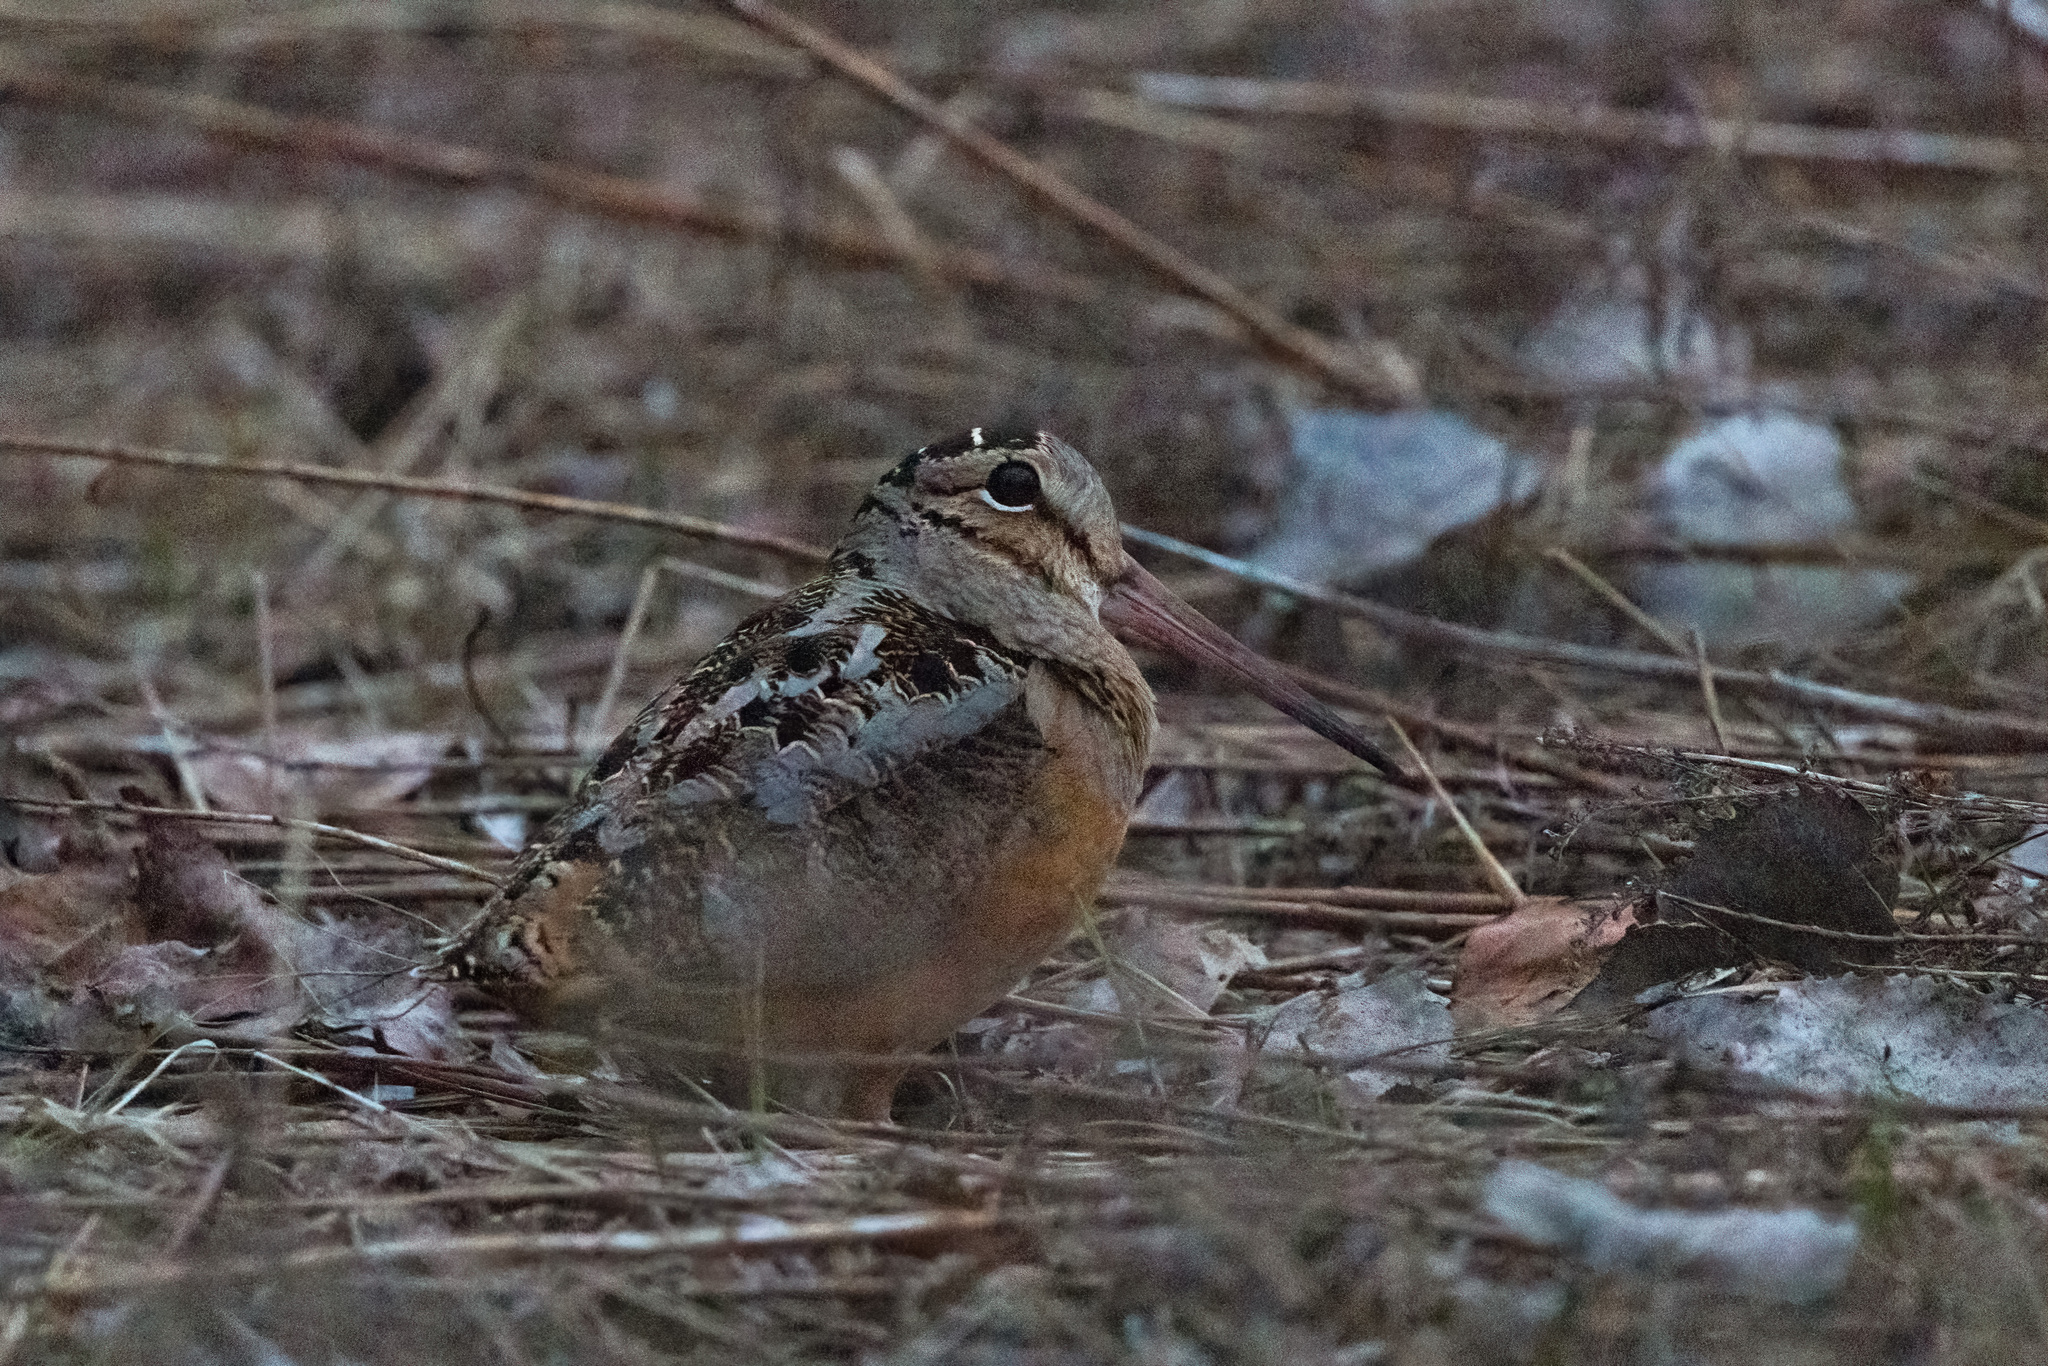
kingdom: Animalia
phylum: Chordata
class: Aves
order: Charadriiformes
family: Scolopacidae
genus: Scolopax
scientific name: Scolopax minor
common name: American woodcock
